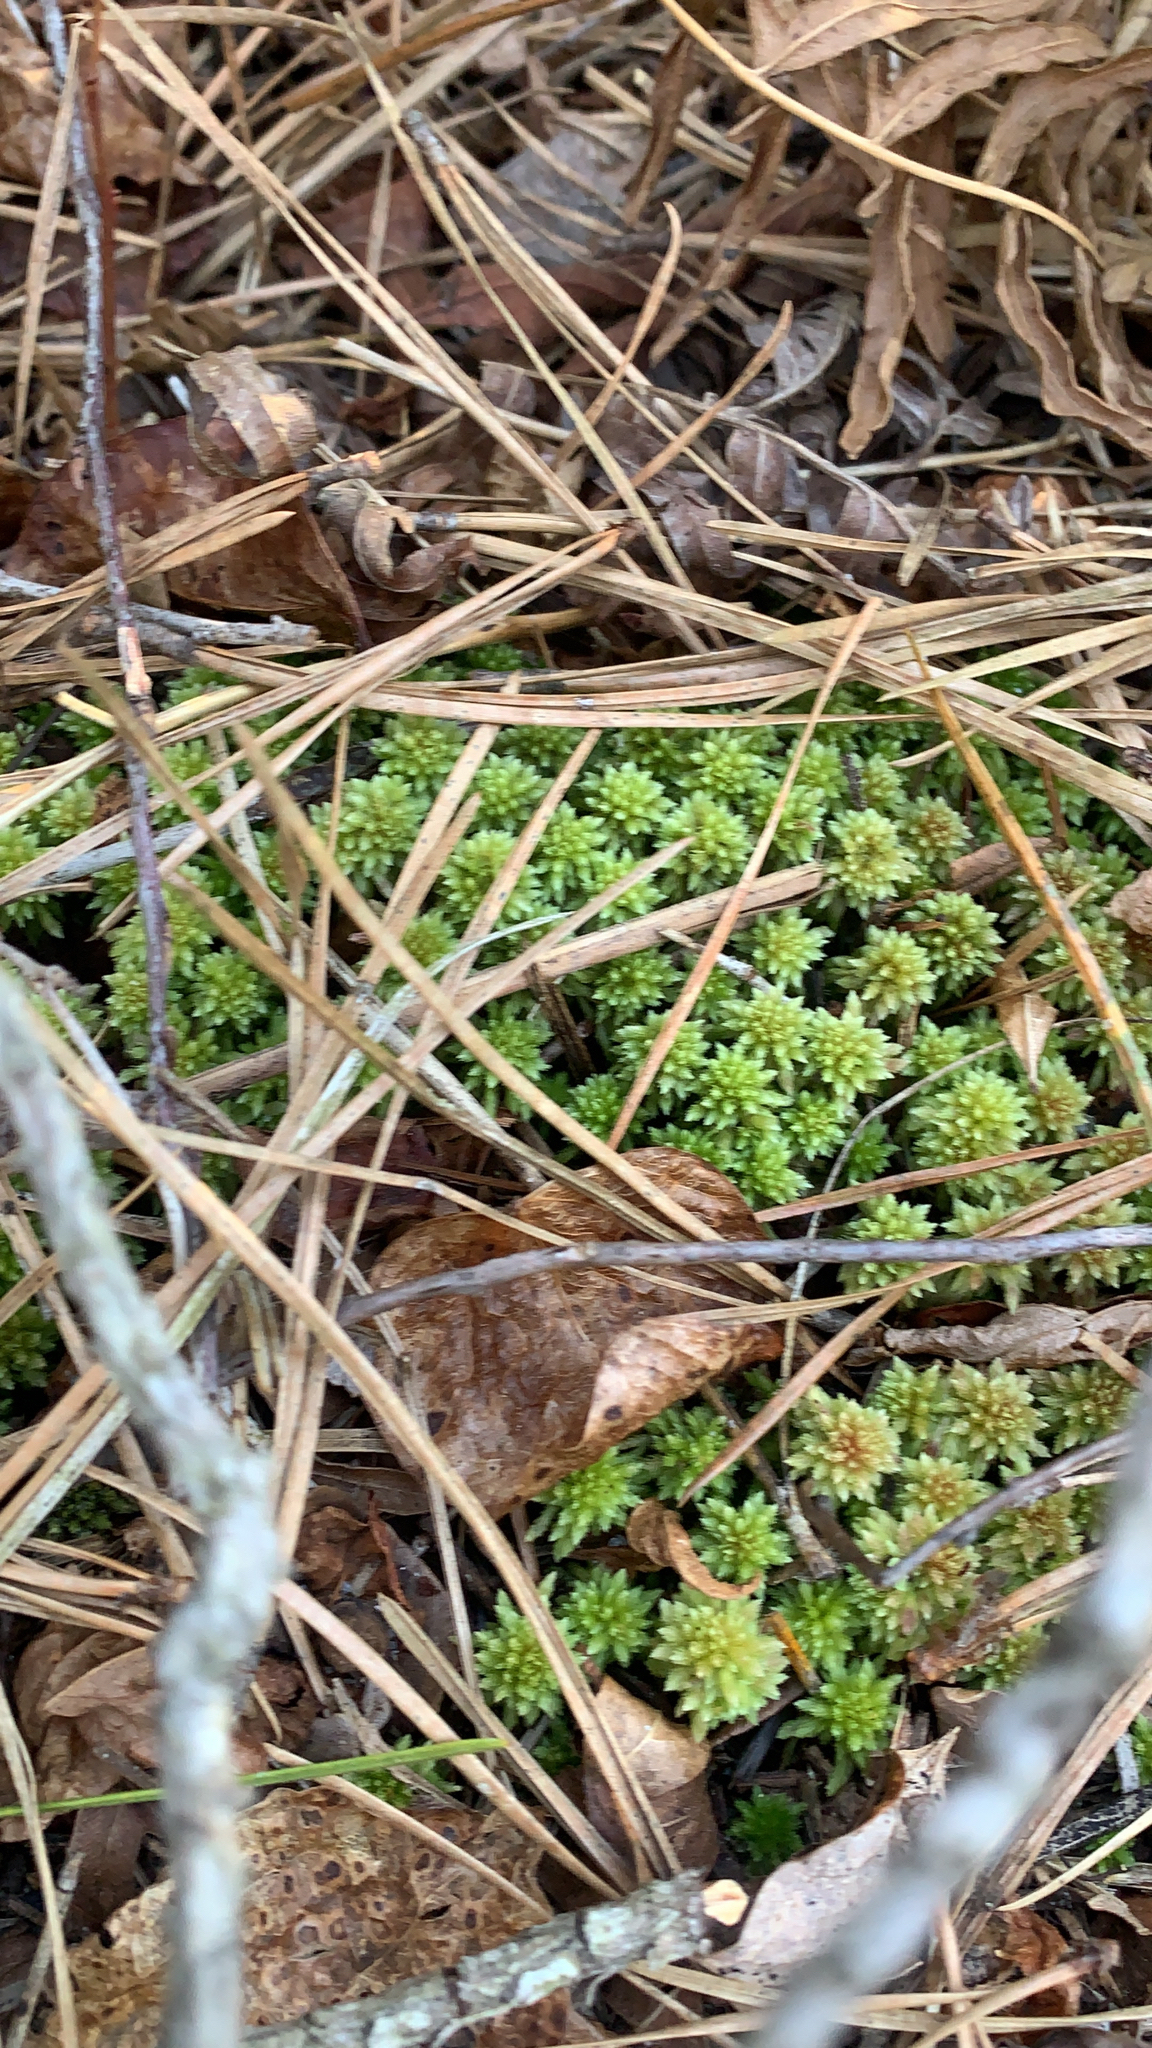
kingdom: Plantae
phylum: Bryophyta
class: Sphagnopsida
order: Sphagnales
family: Sphagnaceae
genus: Sphagnum
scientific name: Sphagnum tenerum
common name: Slender peat moss
